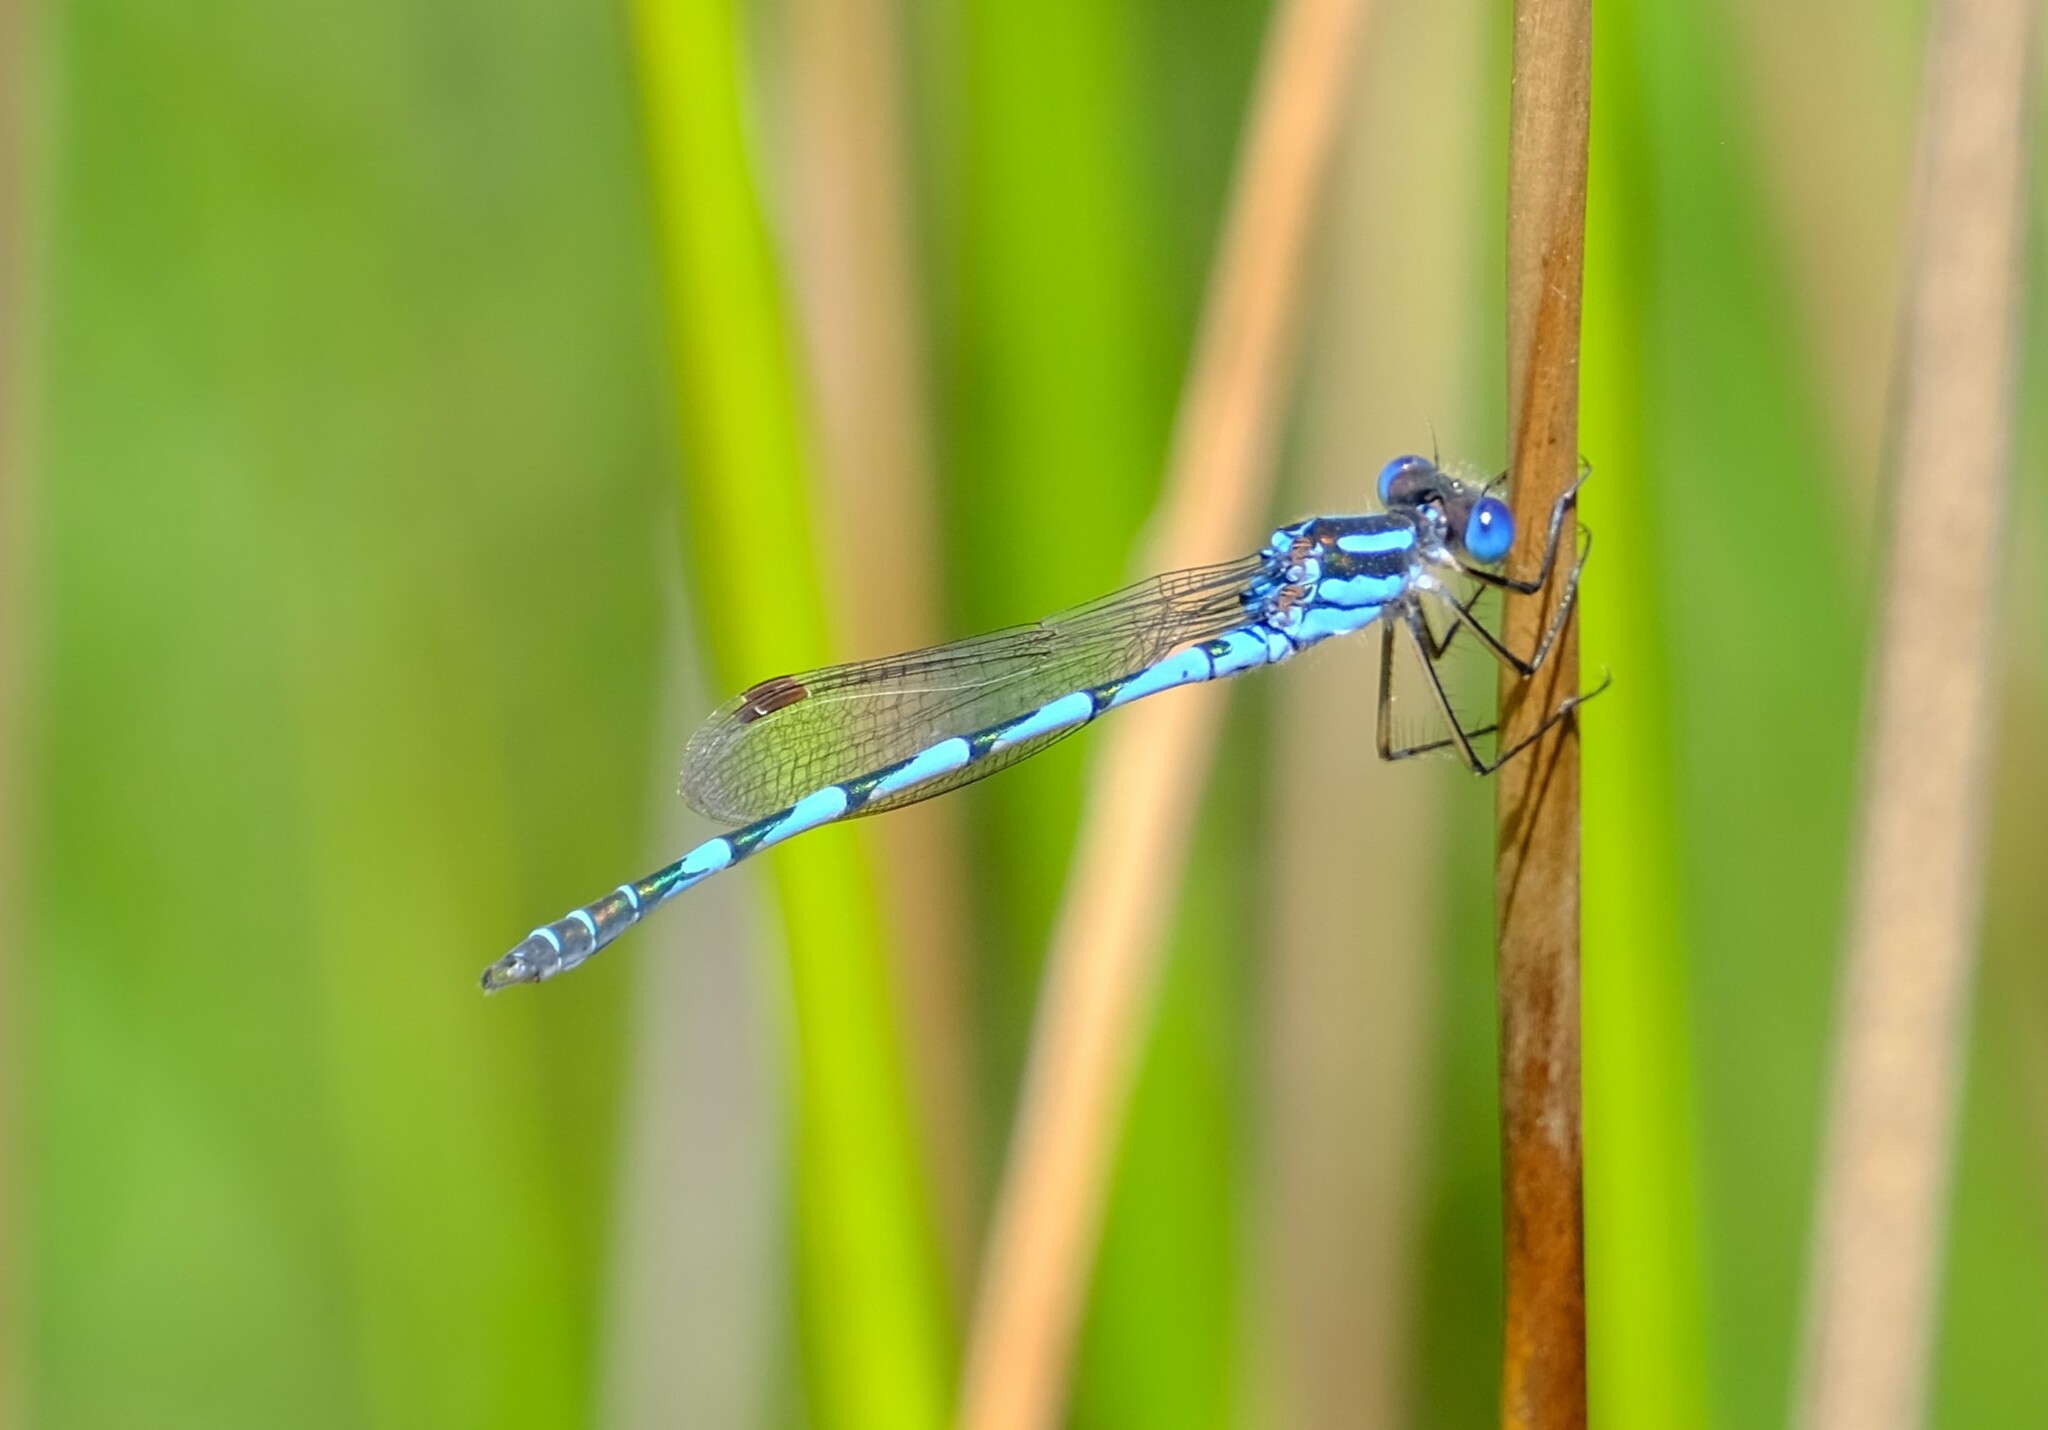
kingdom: Animalia
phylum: Arthropoda
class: Insecta
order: Odonata
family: Lestidae
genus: Austrolestes
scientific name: Austrolestes annulosus
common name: Blue ringtail
